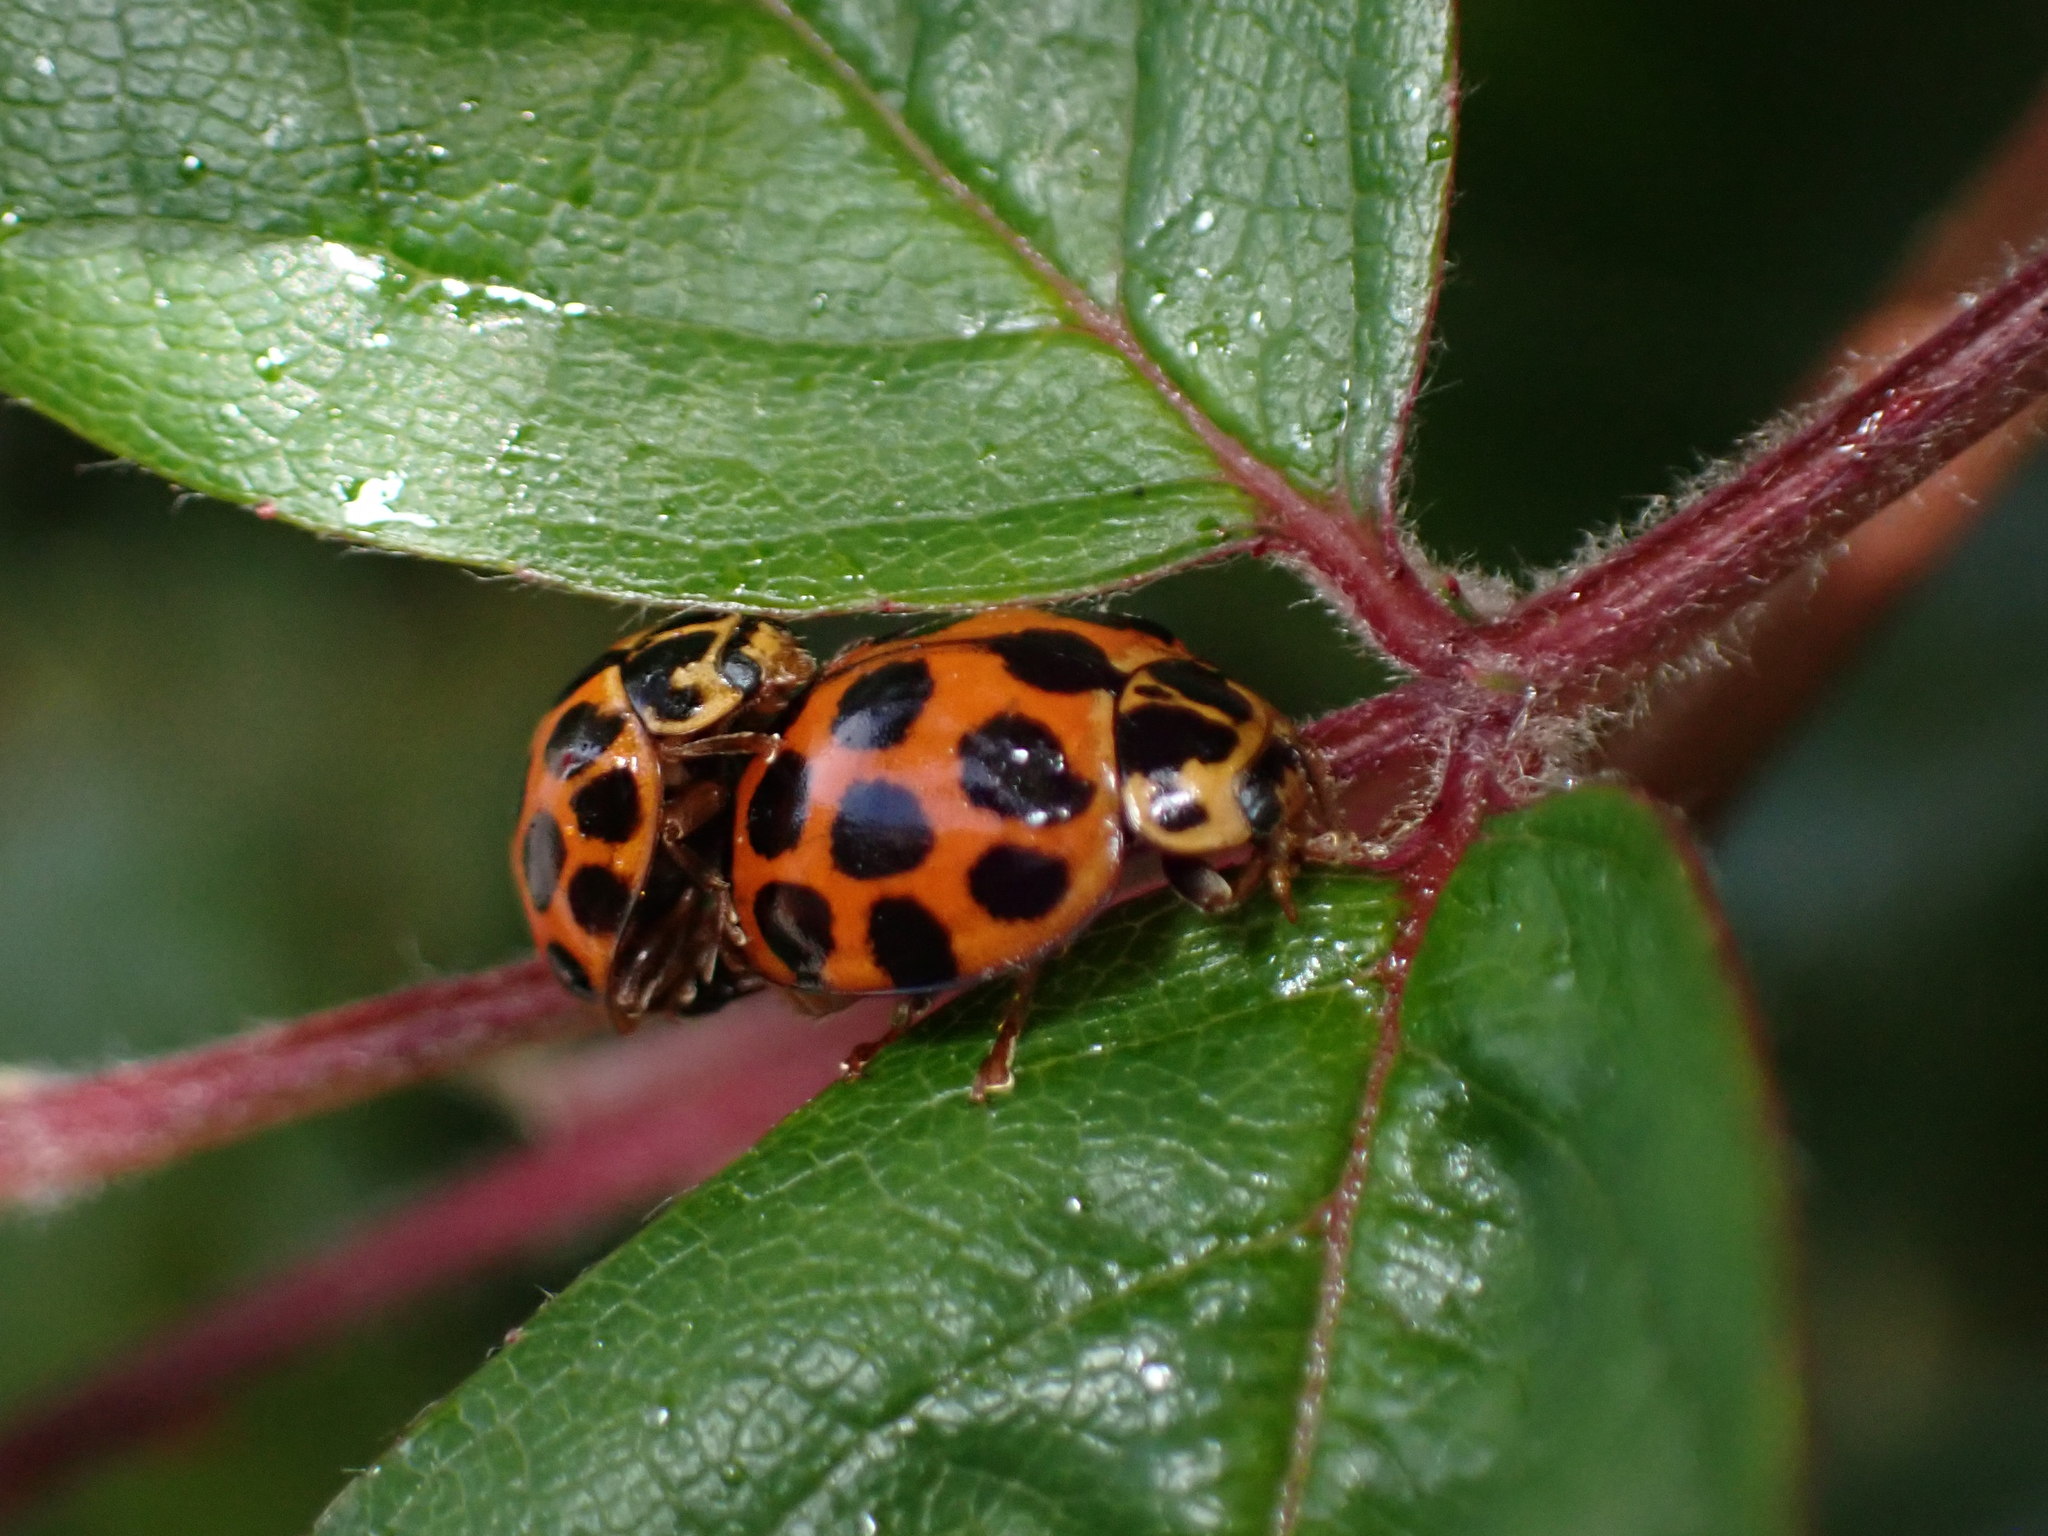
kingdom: Animalia
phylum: Arthropoda
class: Insecta
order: Coleoptera
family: Coccinellidae
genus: Harmonia
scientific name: Harmonia conformis
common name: Common spotted ladybird beetle
